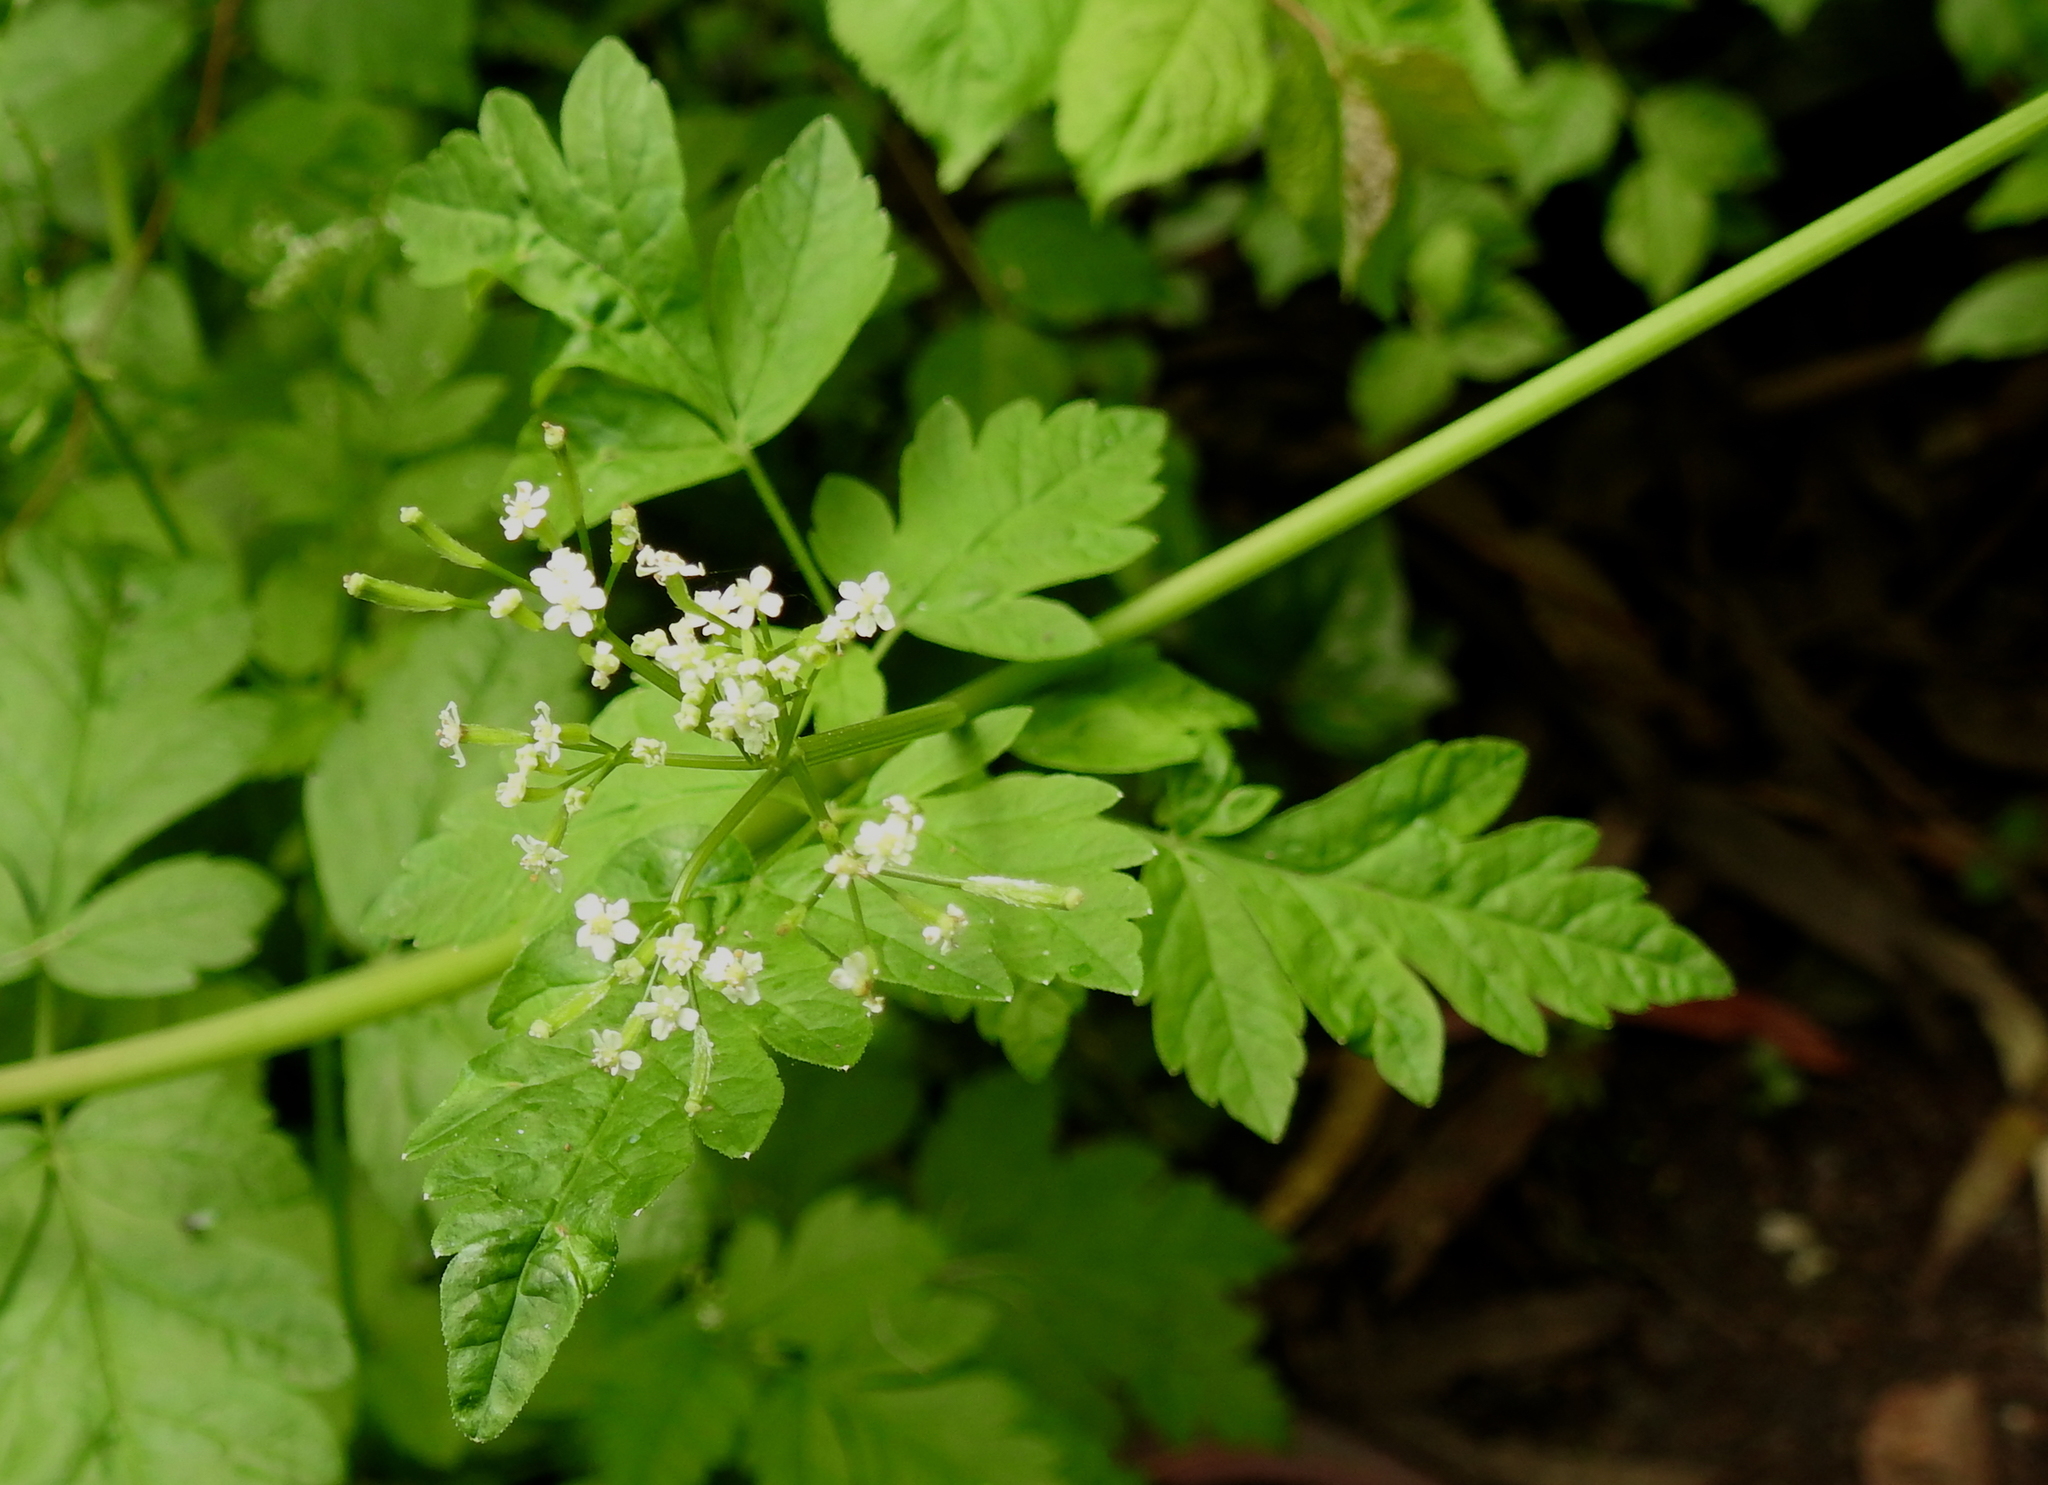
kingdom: Plantae
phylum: Tracheophyta
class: Magnoliopsida
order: Apiales
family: Apiaceae
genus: Osmorhiza
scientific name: Osmorhiza berteroi
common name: Mountain sweet cicely
